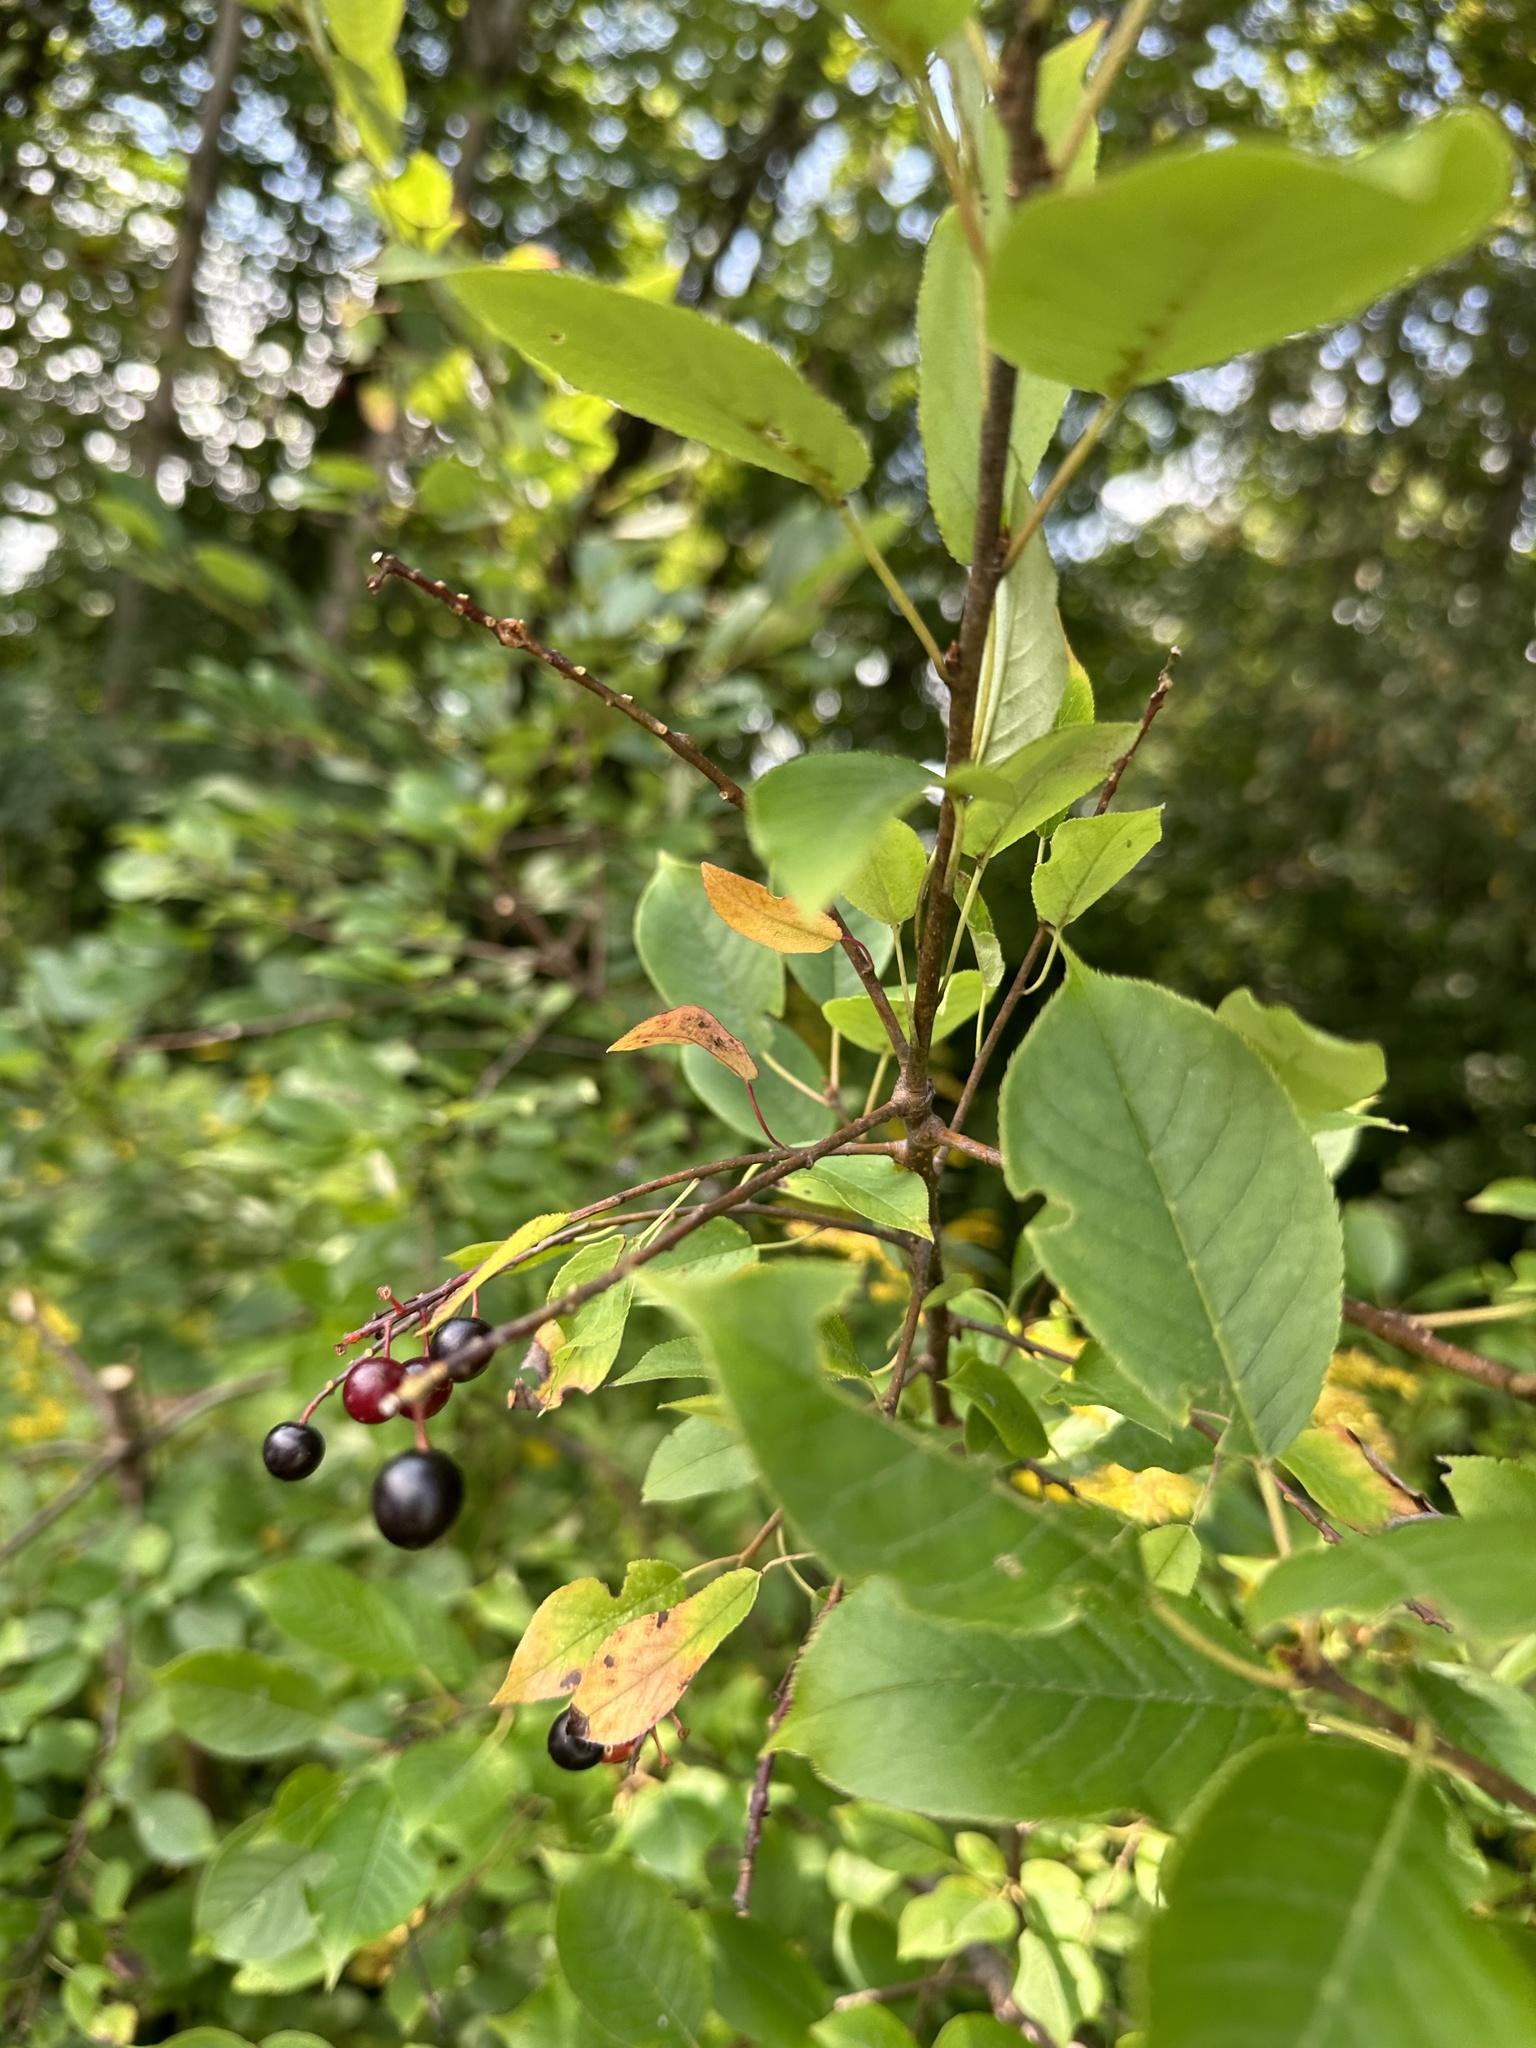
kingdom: Plantae
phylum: Tracheophyta
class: Magnoliopsida
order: Rosales
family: Rosaceae
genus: Prunus
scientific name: Prunus virginiana
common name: Chokecherry
